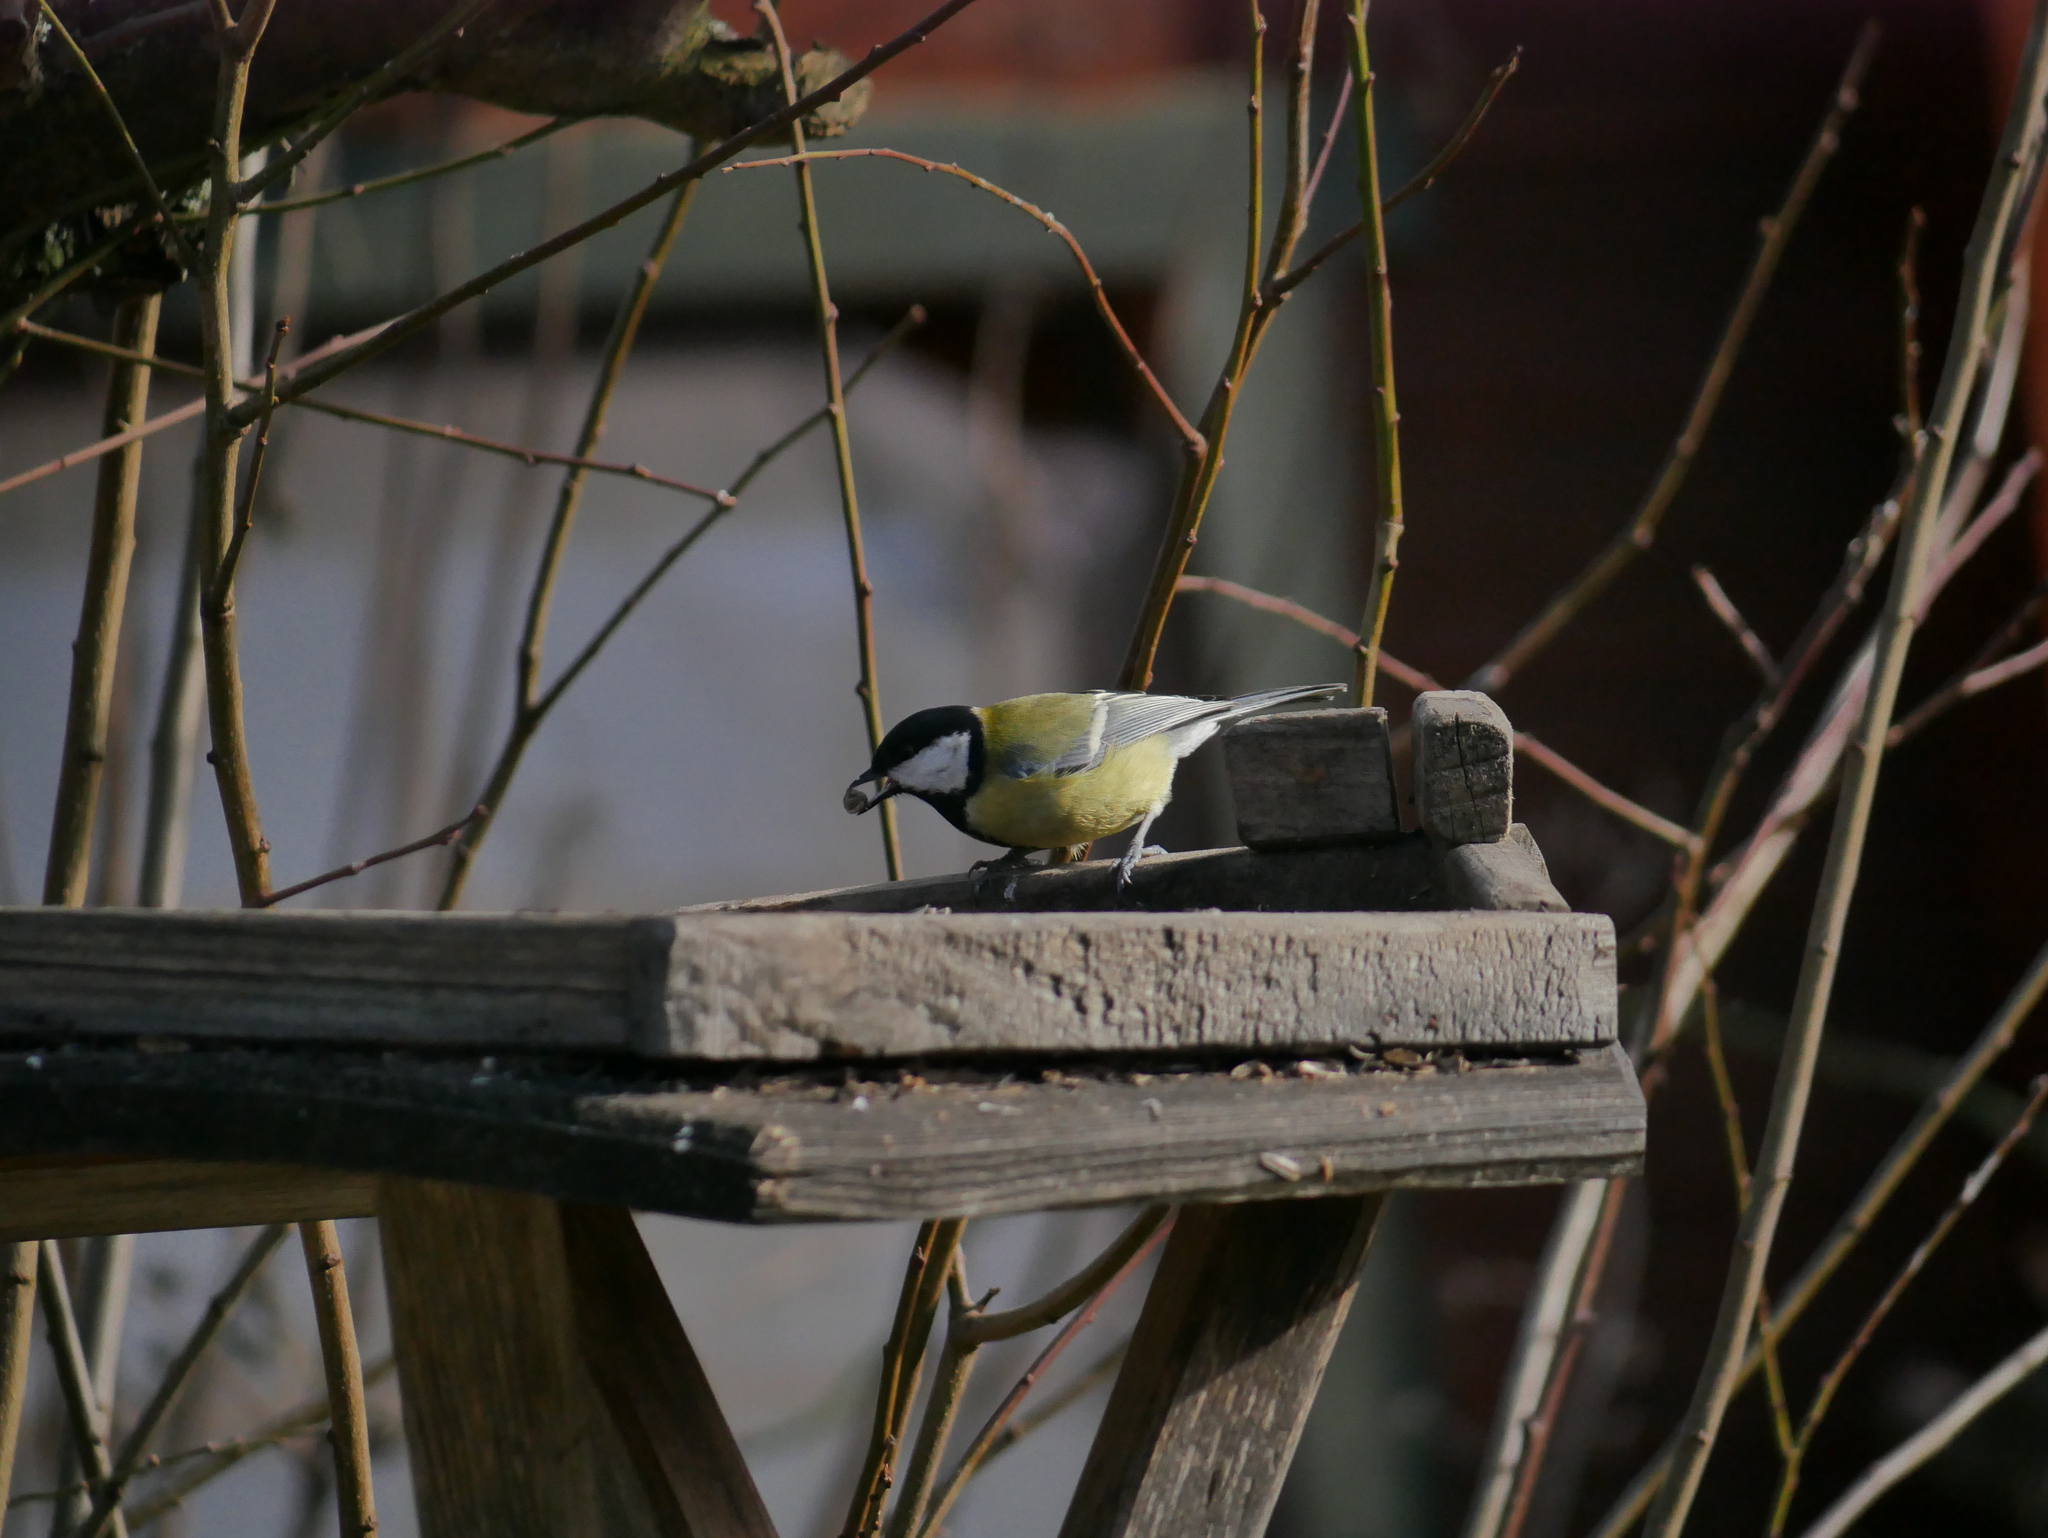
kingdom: Animalia
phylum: Chordata
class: Aves
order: Passeriformes
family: Paridae
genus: Parus
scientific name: Parus major
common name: Great tit
